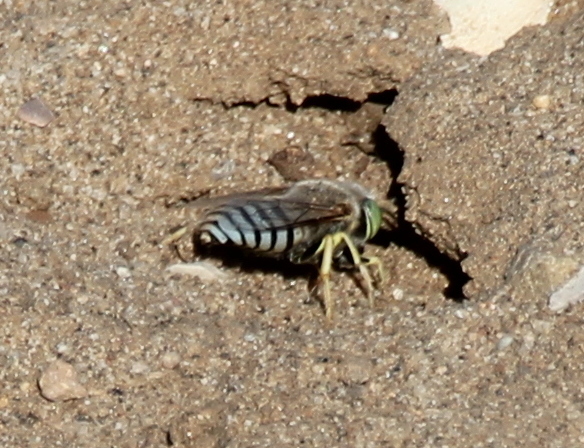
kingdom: Animalia
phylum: Arthropoda
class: Insecta
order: Hymenoptera
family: Crabronidae
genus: Bembix
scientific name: Bembix americana
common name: American sand wasp
